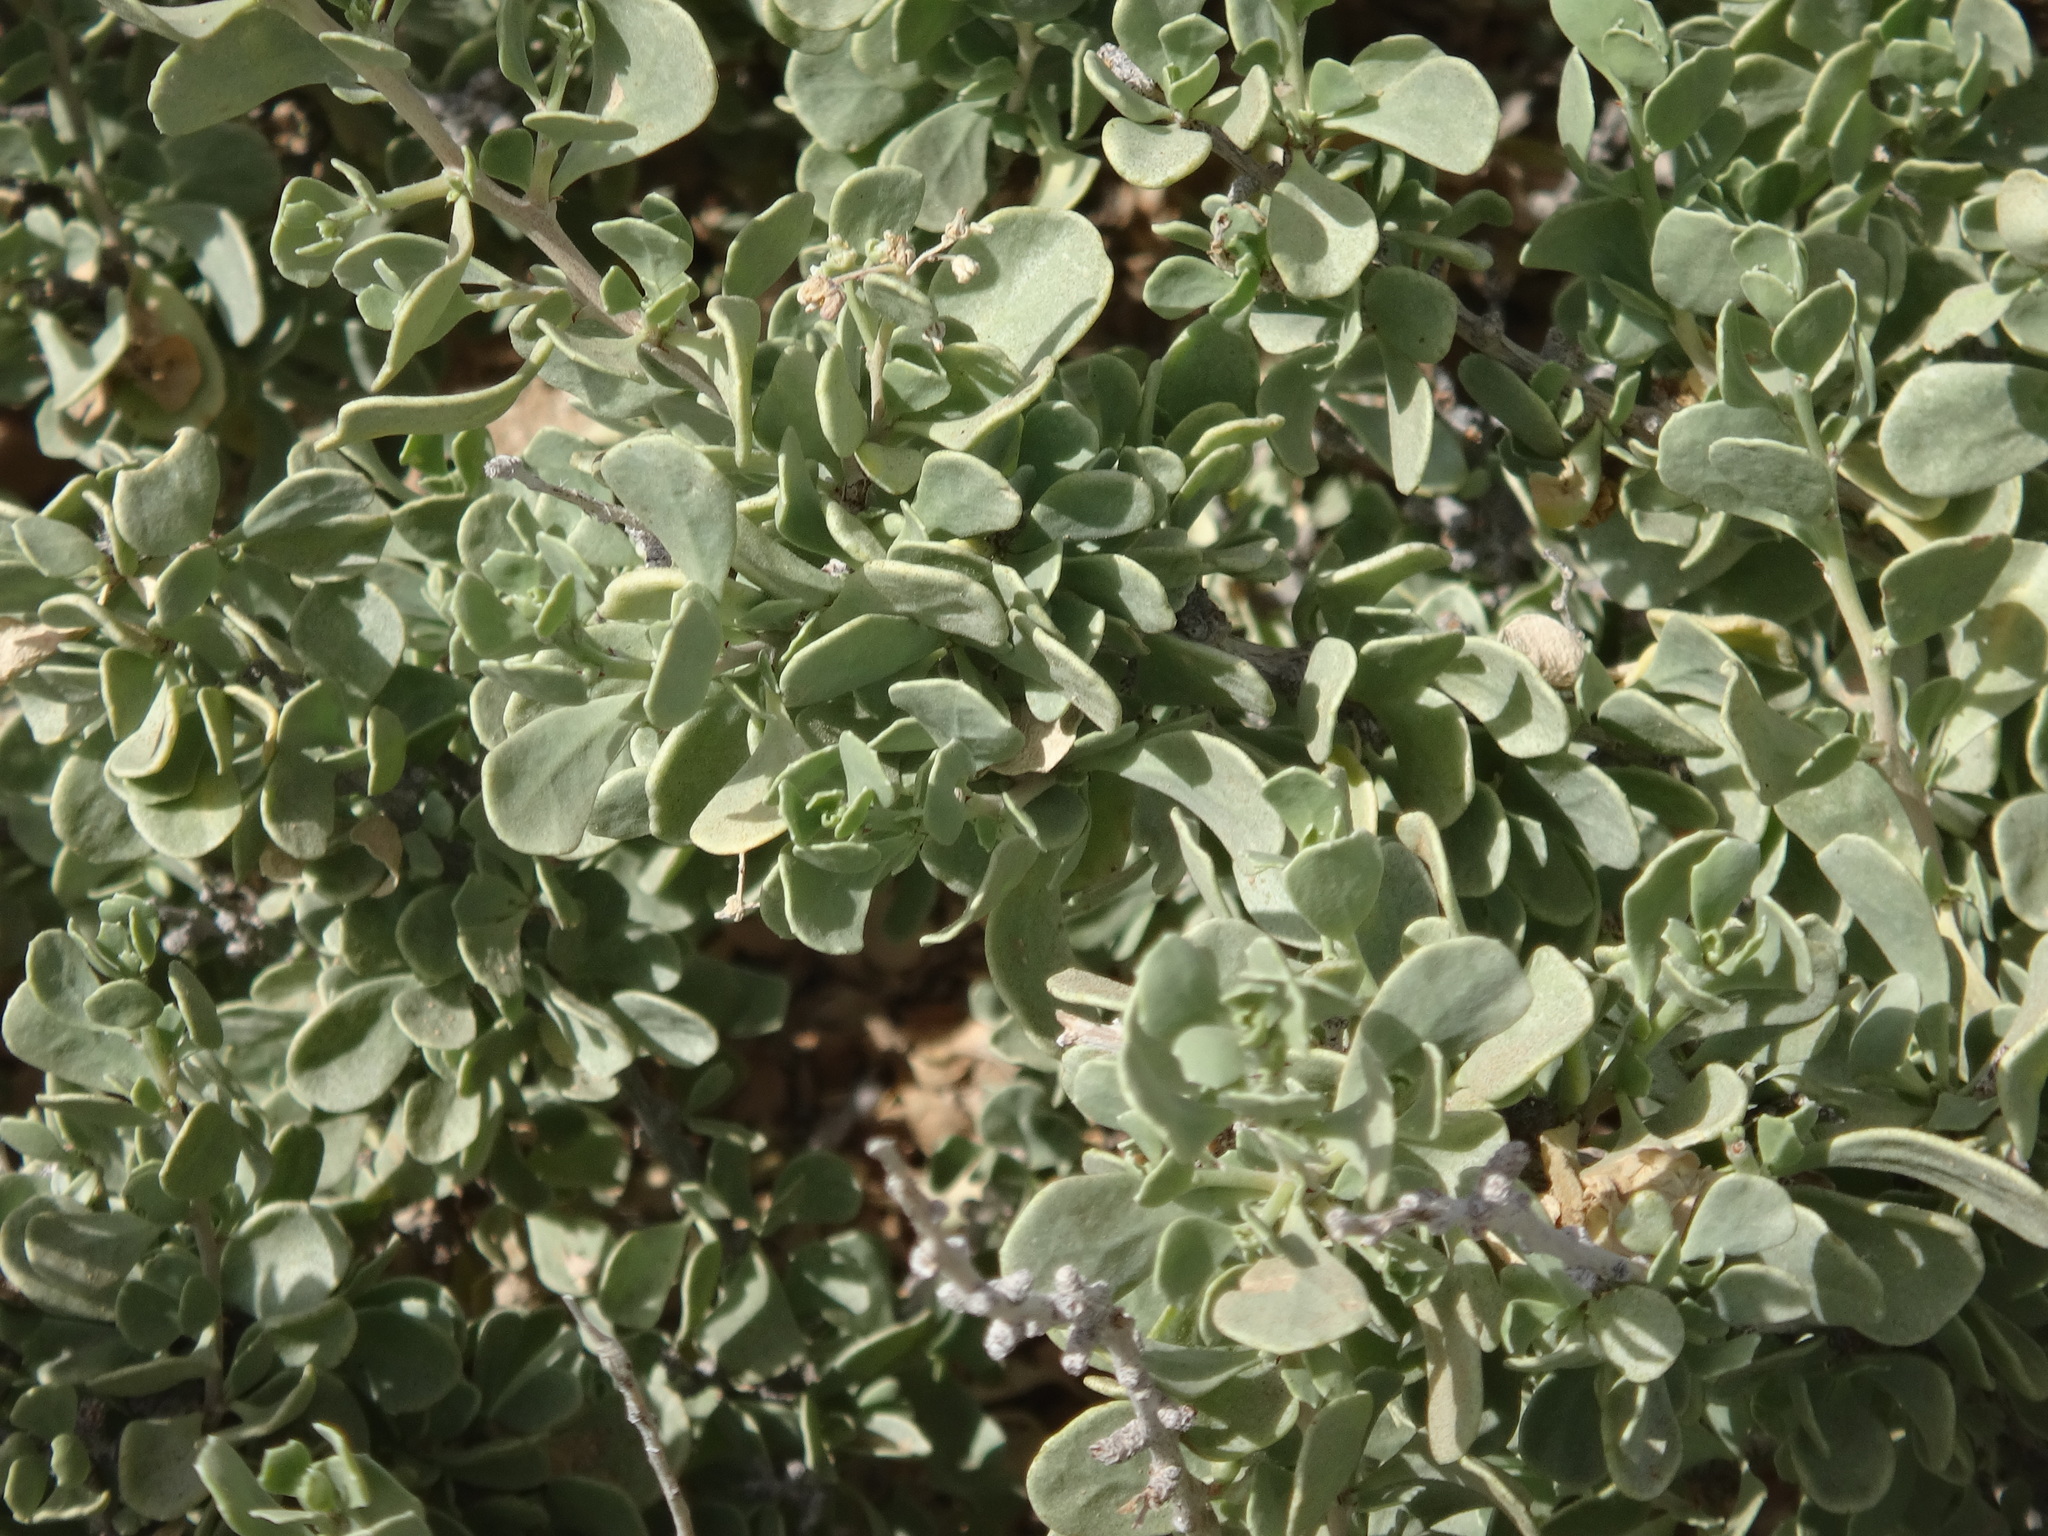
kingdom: Plantae
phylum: Tracheophyta
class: Magnoliopsida
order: Sapindales
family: Nitrariaceae
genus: Nitraria
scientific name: Nitraria retusa
